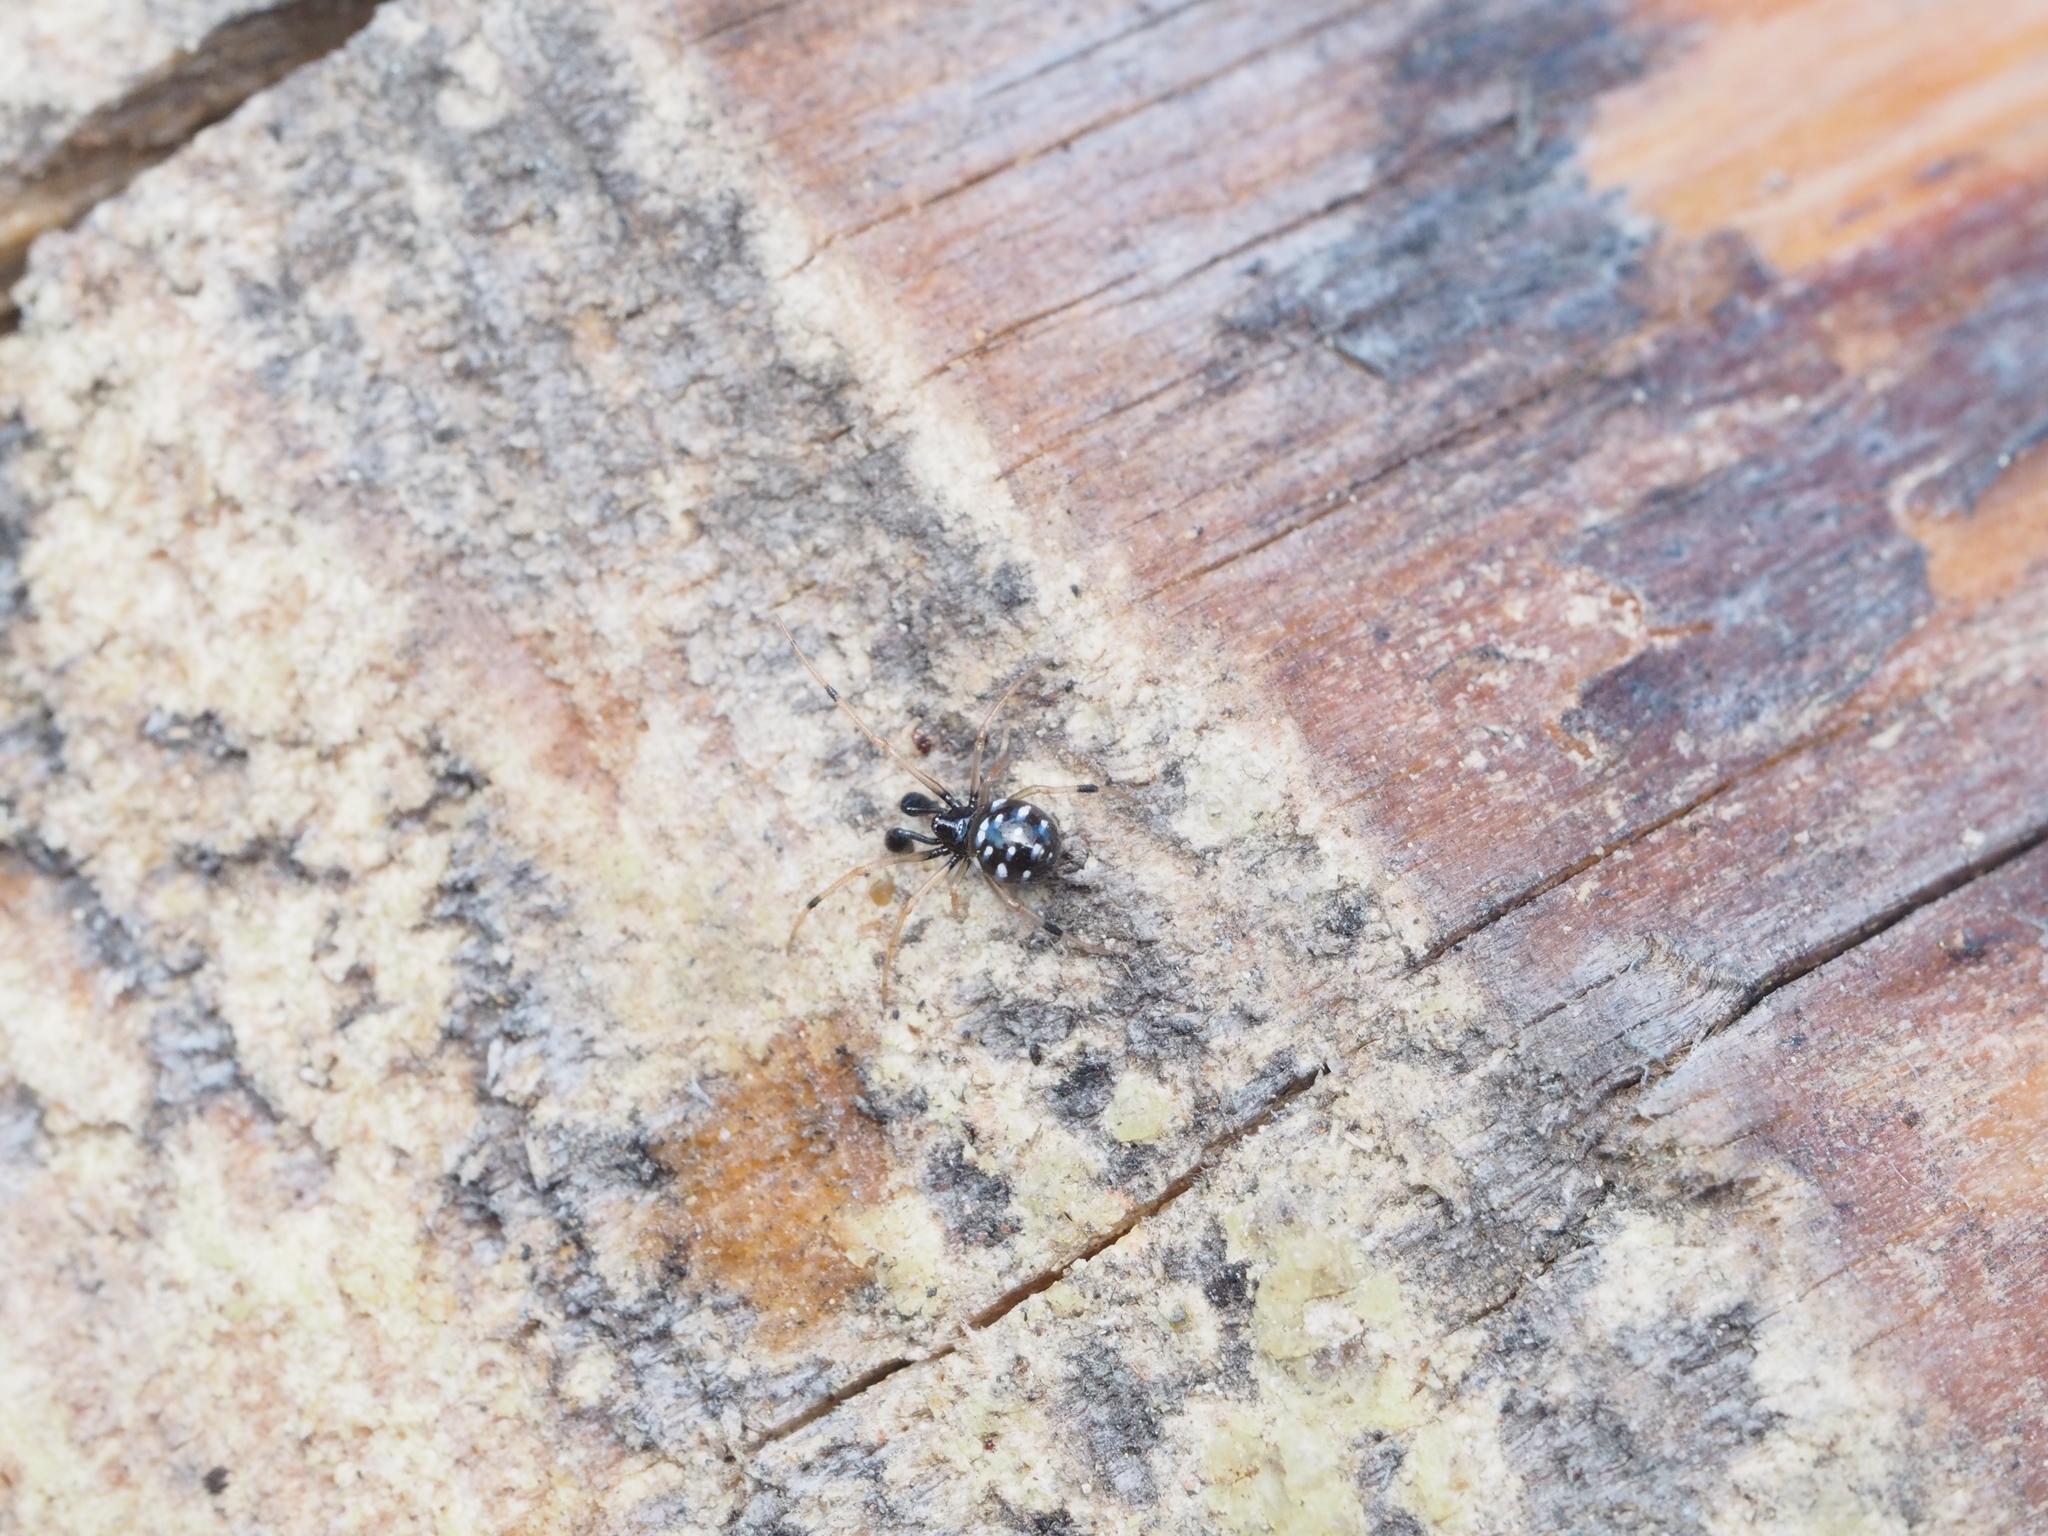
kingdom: Animalia
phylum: Arthropoda
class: Arachnida
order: Araneae
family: Theridiidae
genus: Neottiura
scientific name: Neottiura suaveolens
